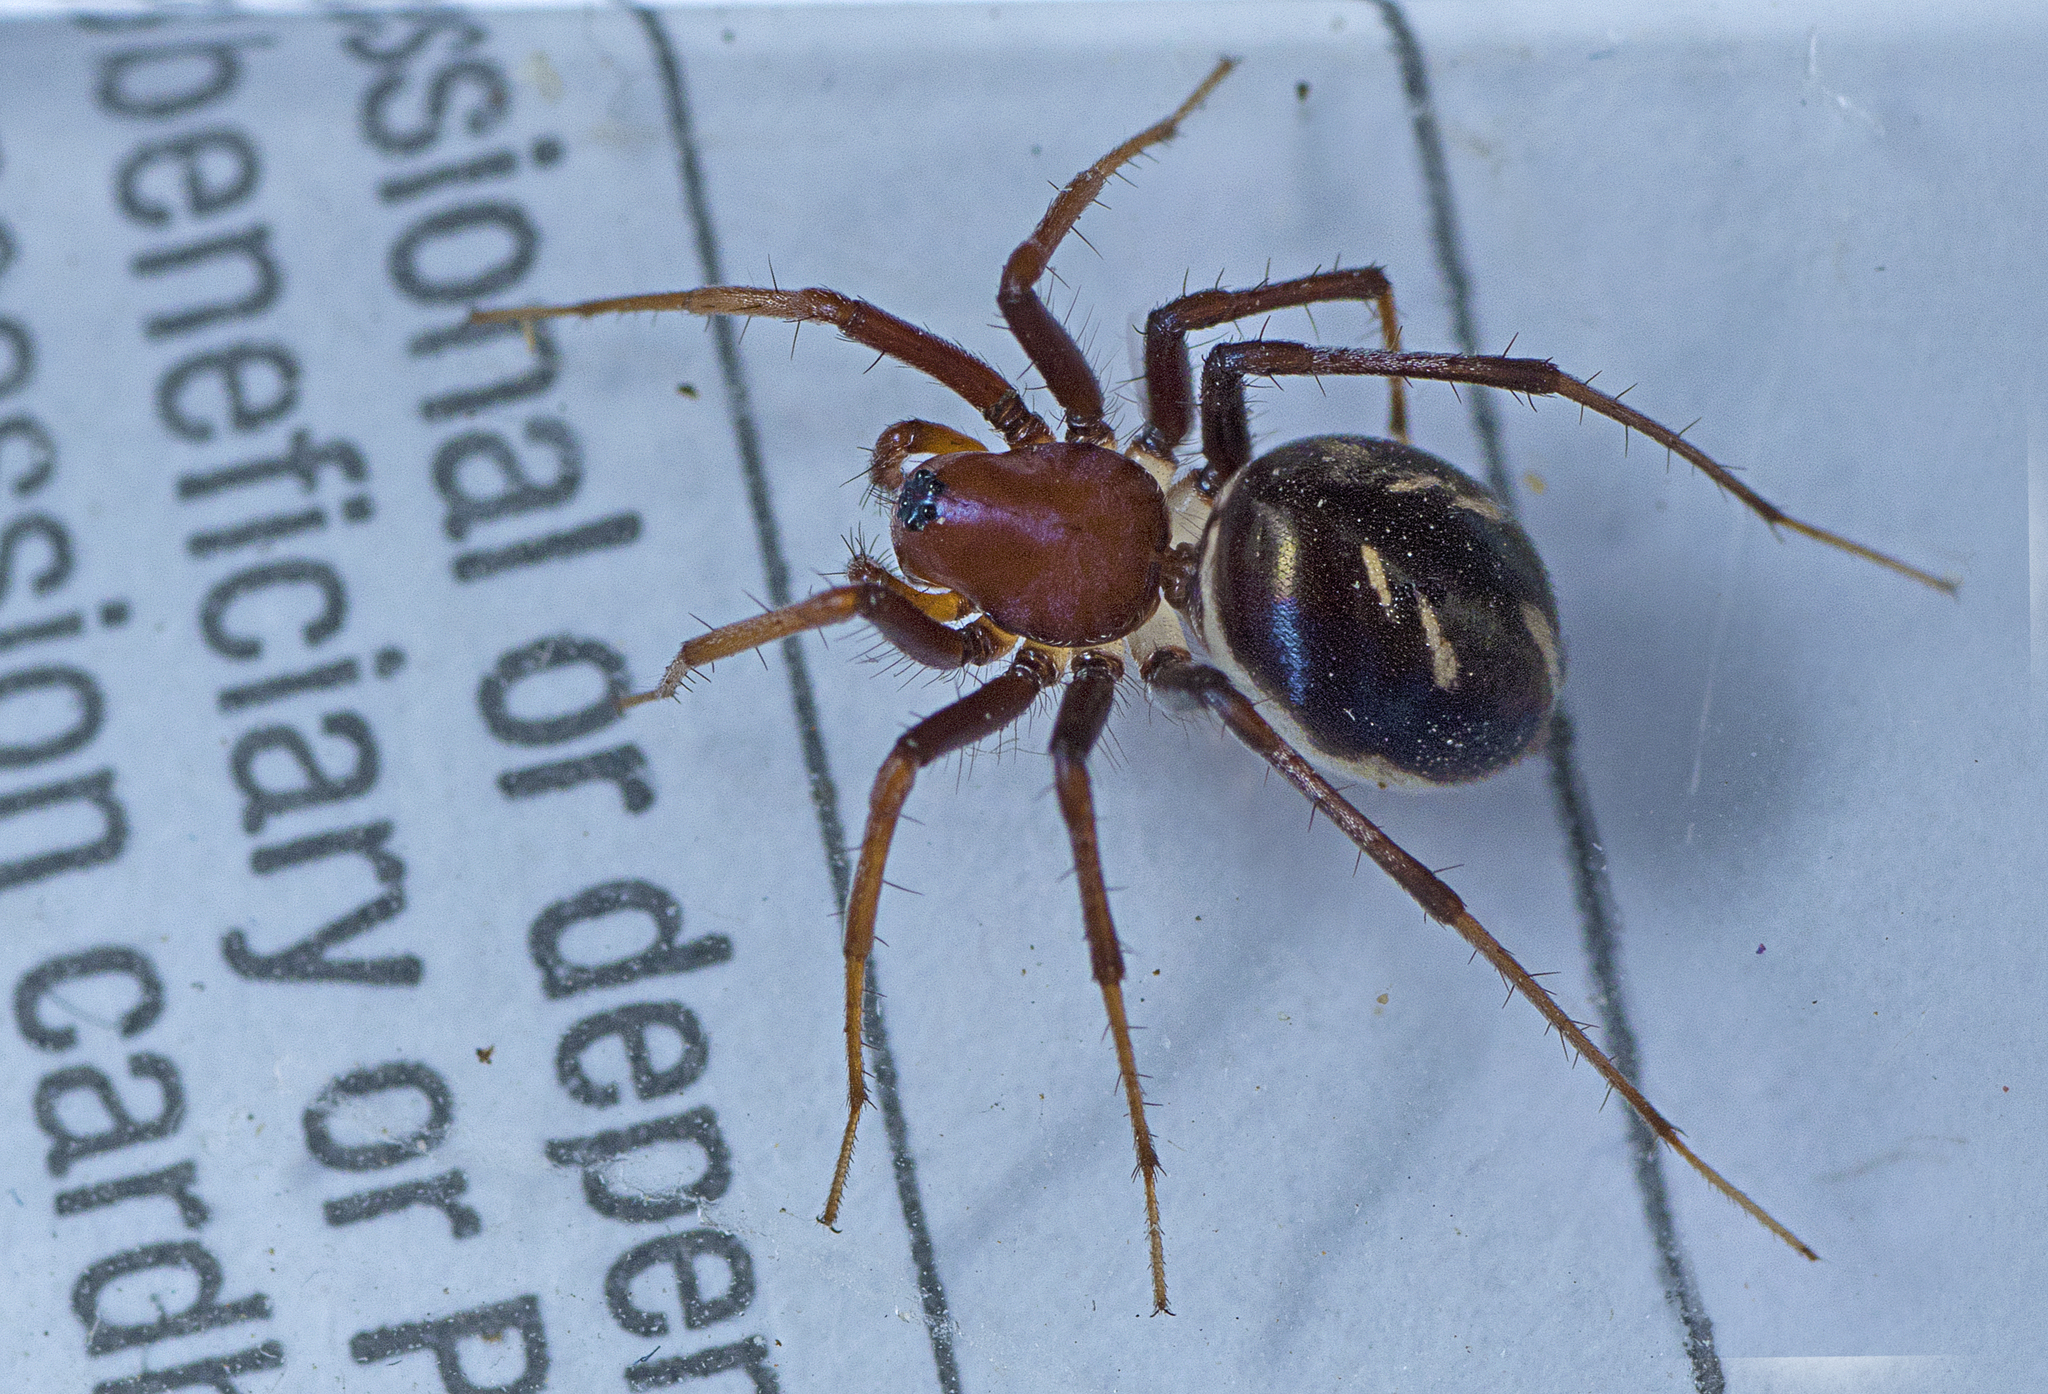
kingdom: Animalia
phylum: Arthropoda
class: Arachnida
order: Araneae
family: Zodariidae
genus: Habronestes
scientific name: Habronestes bradleyi
